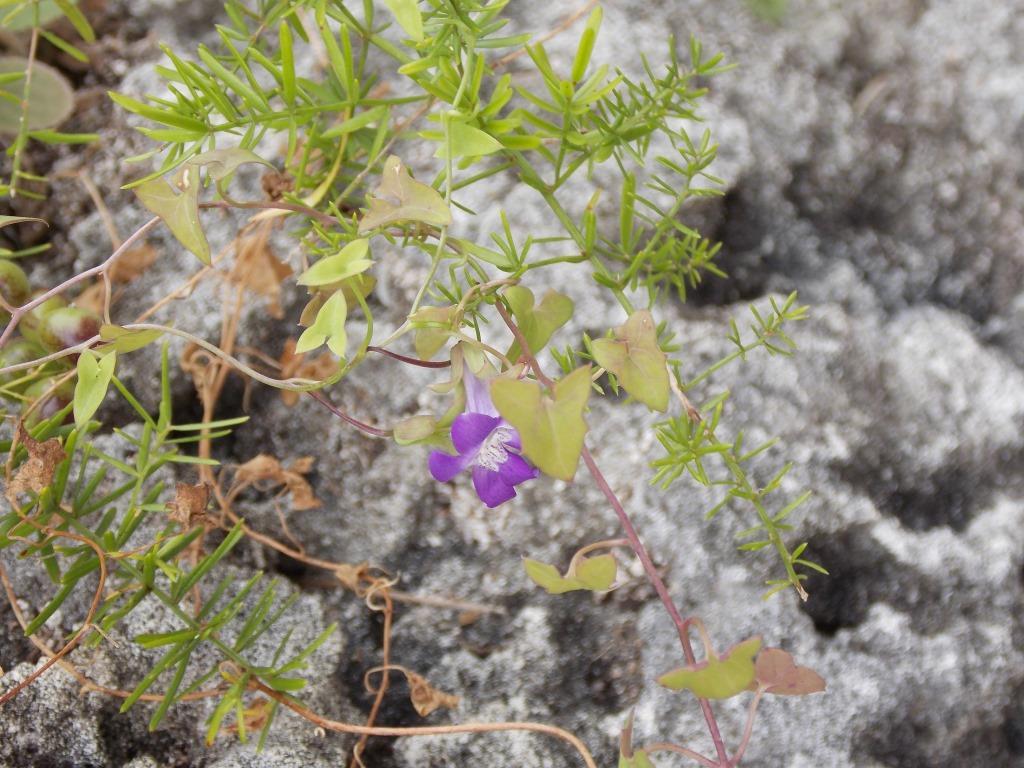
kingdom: Plantae
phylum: Tracheophyta
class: Magnoliopsida
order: Lamiales
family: Plantaginaceae
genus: Maurandella
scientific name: Maurandella antirrhiniflora
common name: Violet twining-snapdragon
